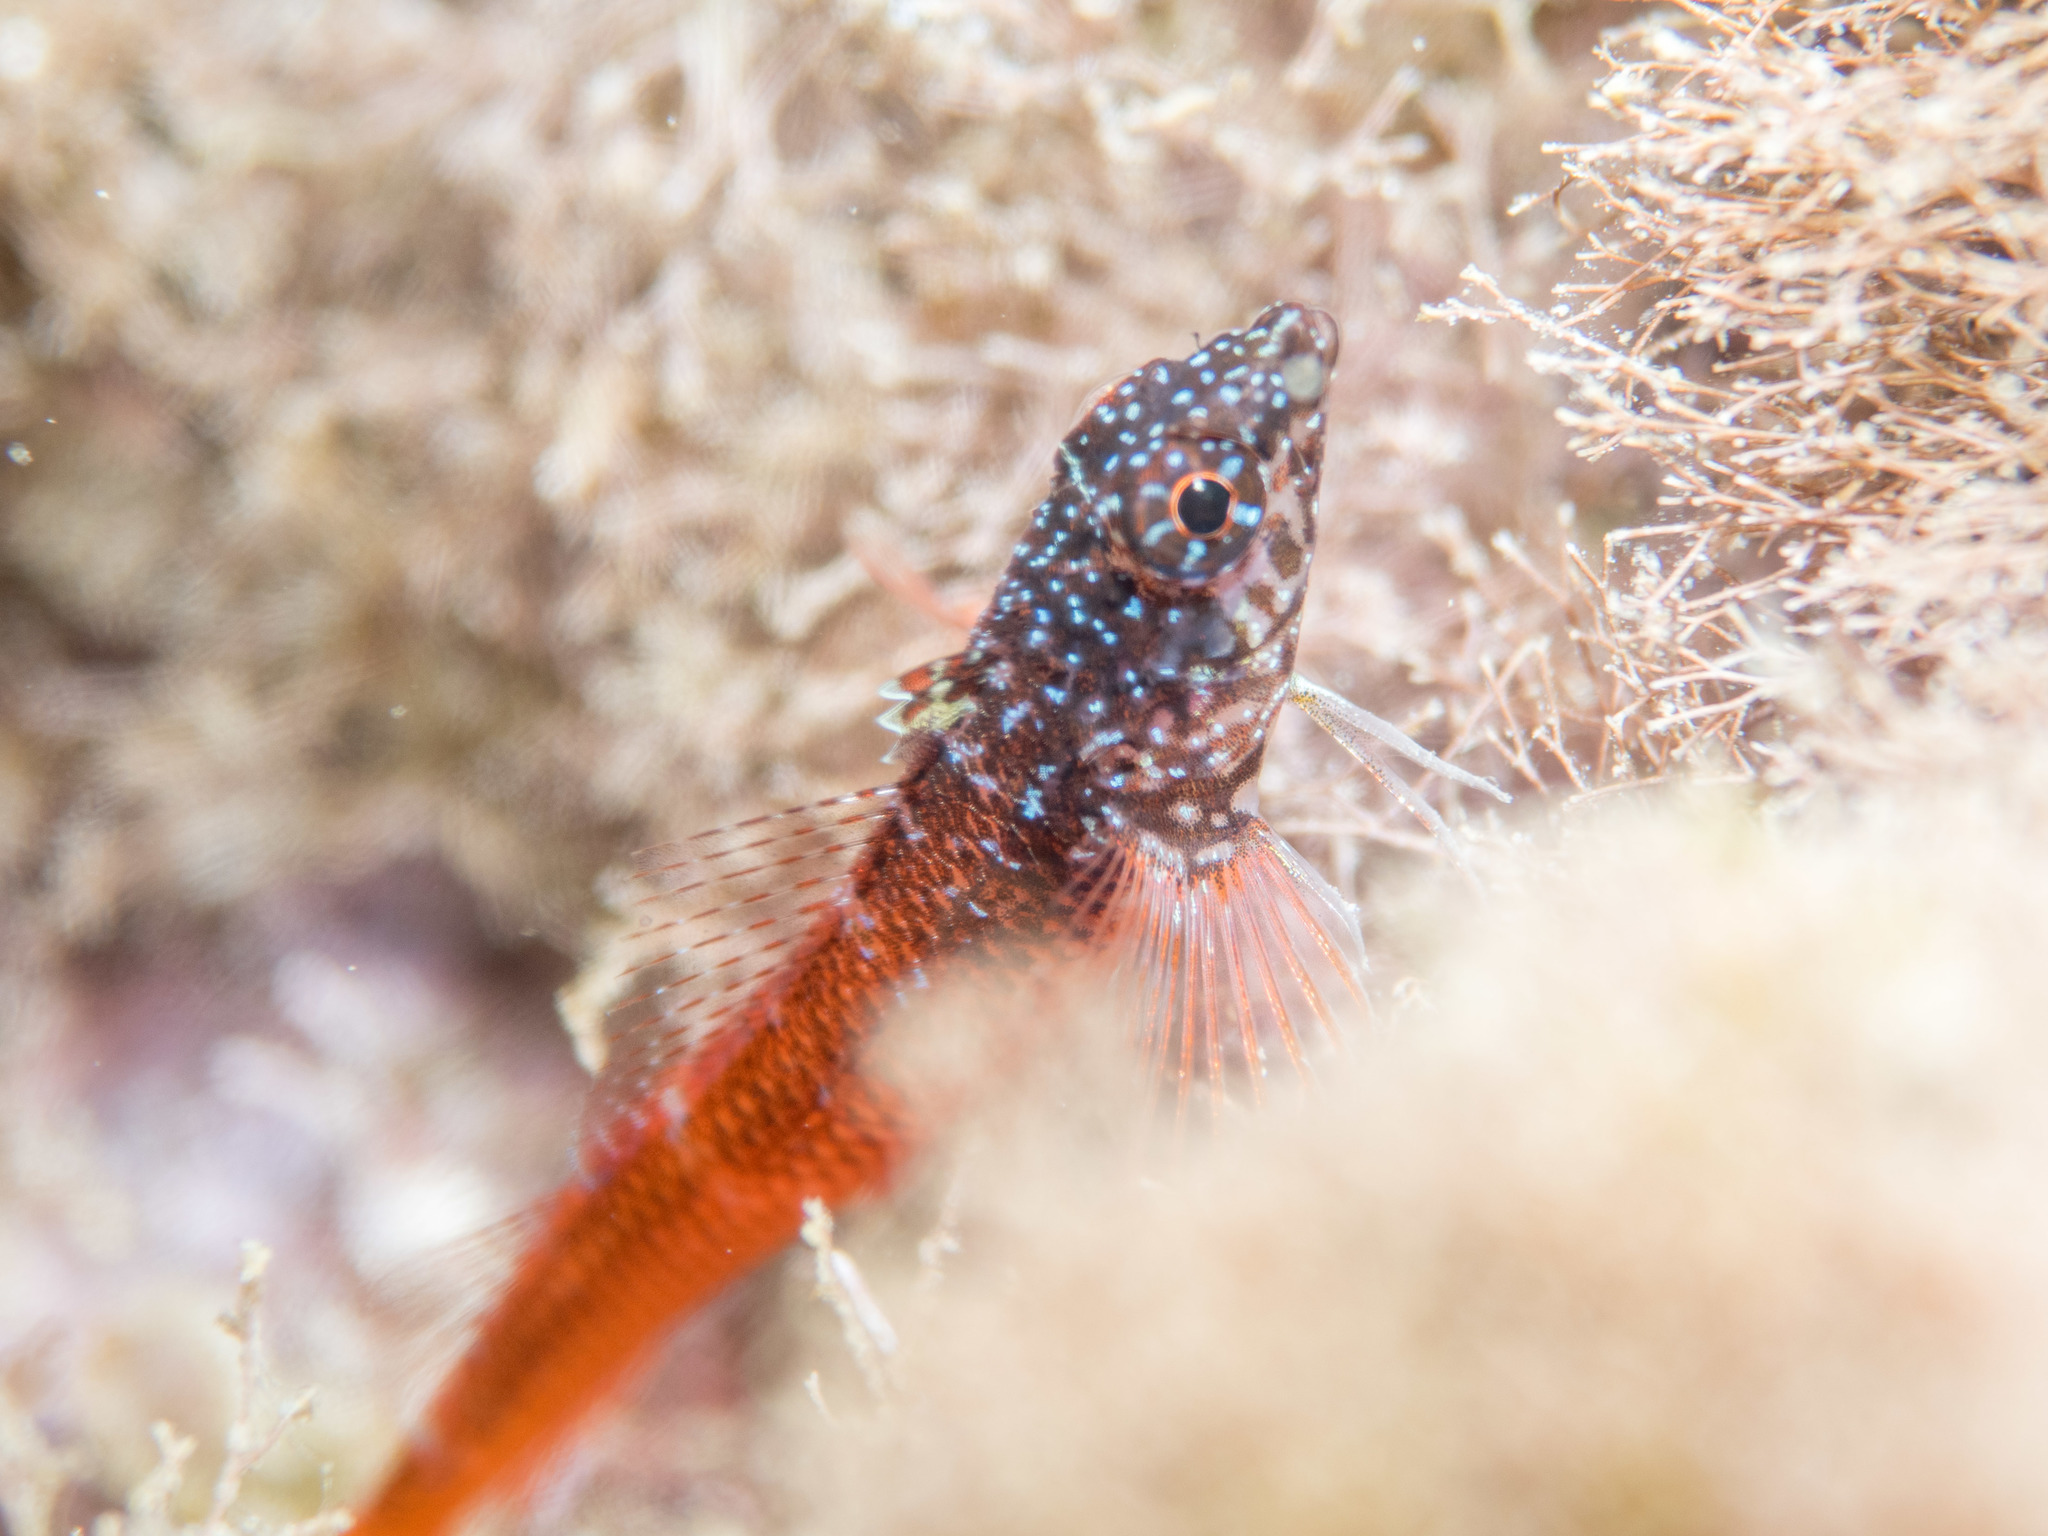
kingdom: Animalia
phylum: Chordata
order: Perciformes
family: Tripterygiidae
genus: Tripterygion
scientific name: Tripterygion melanurum
